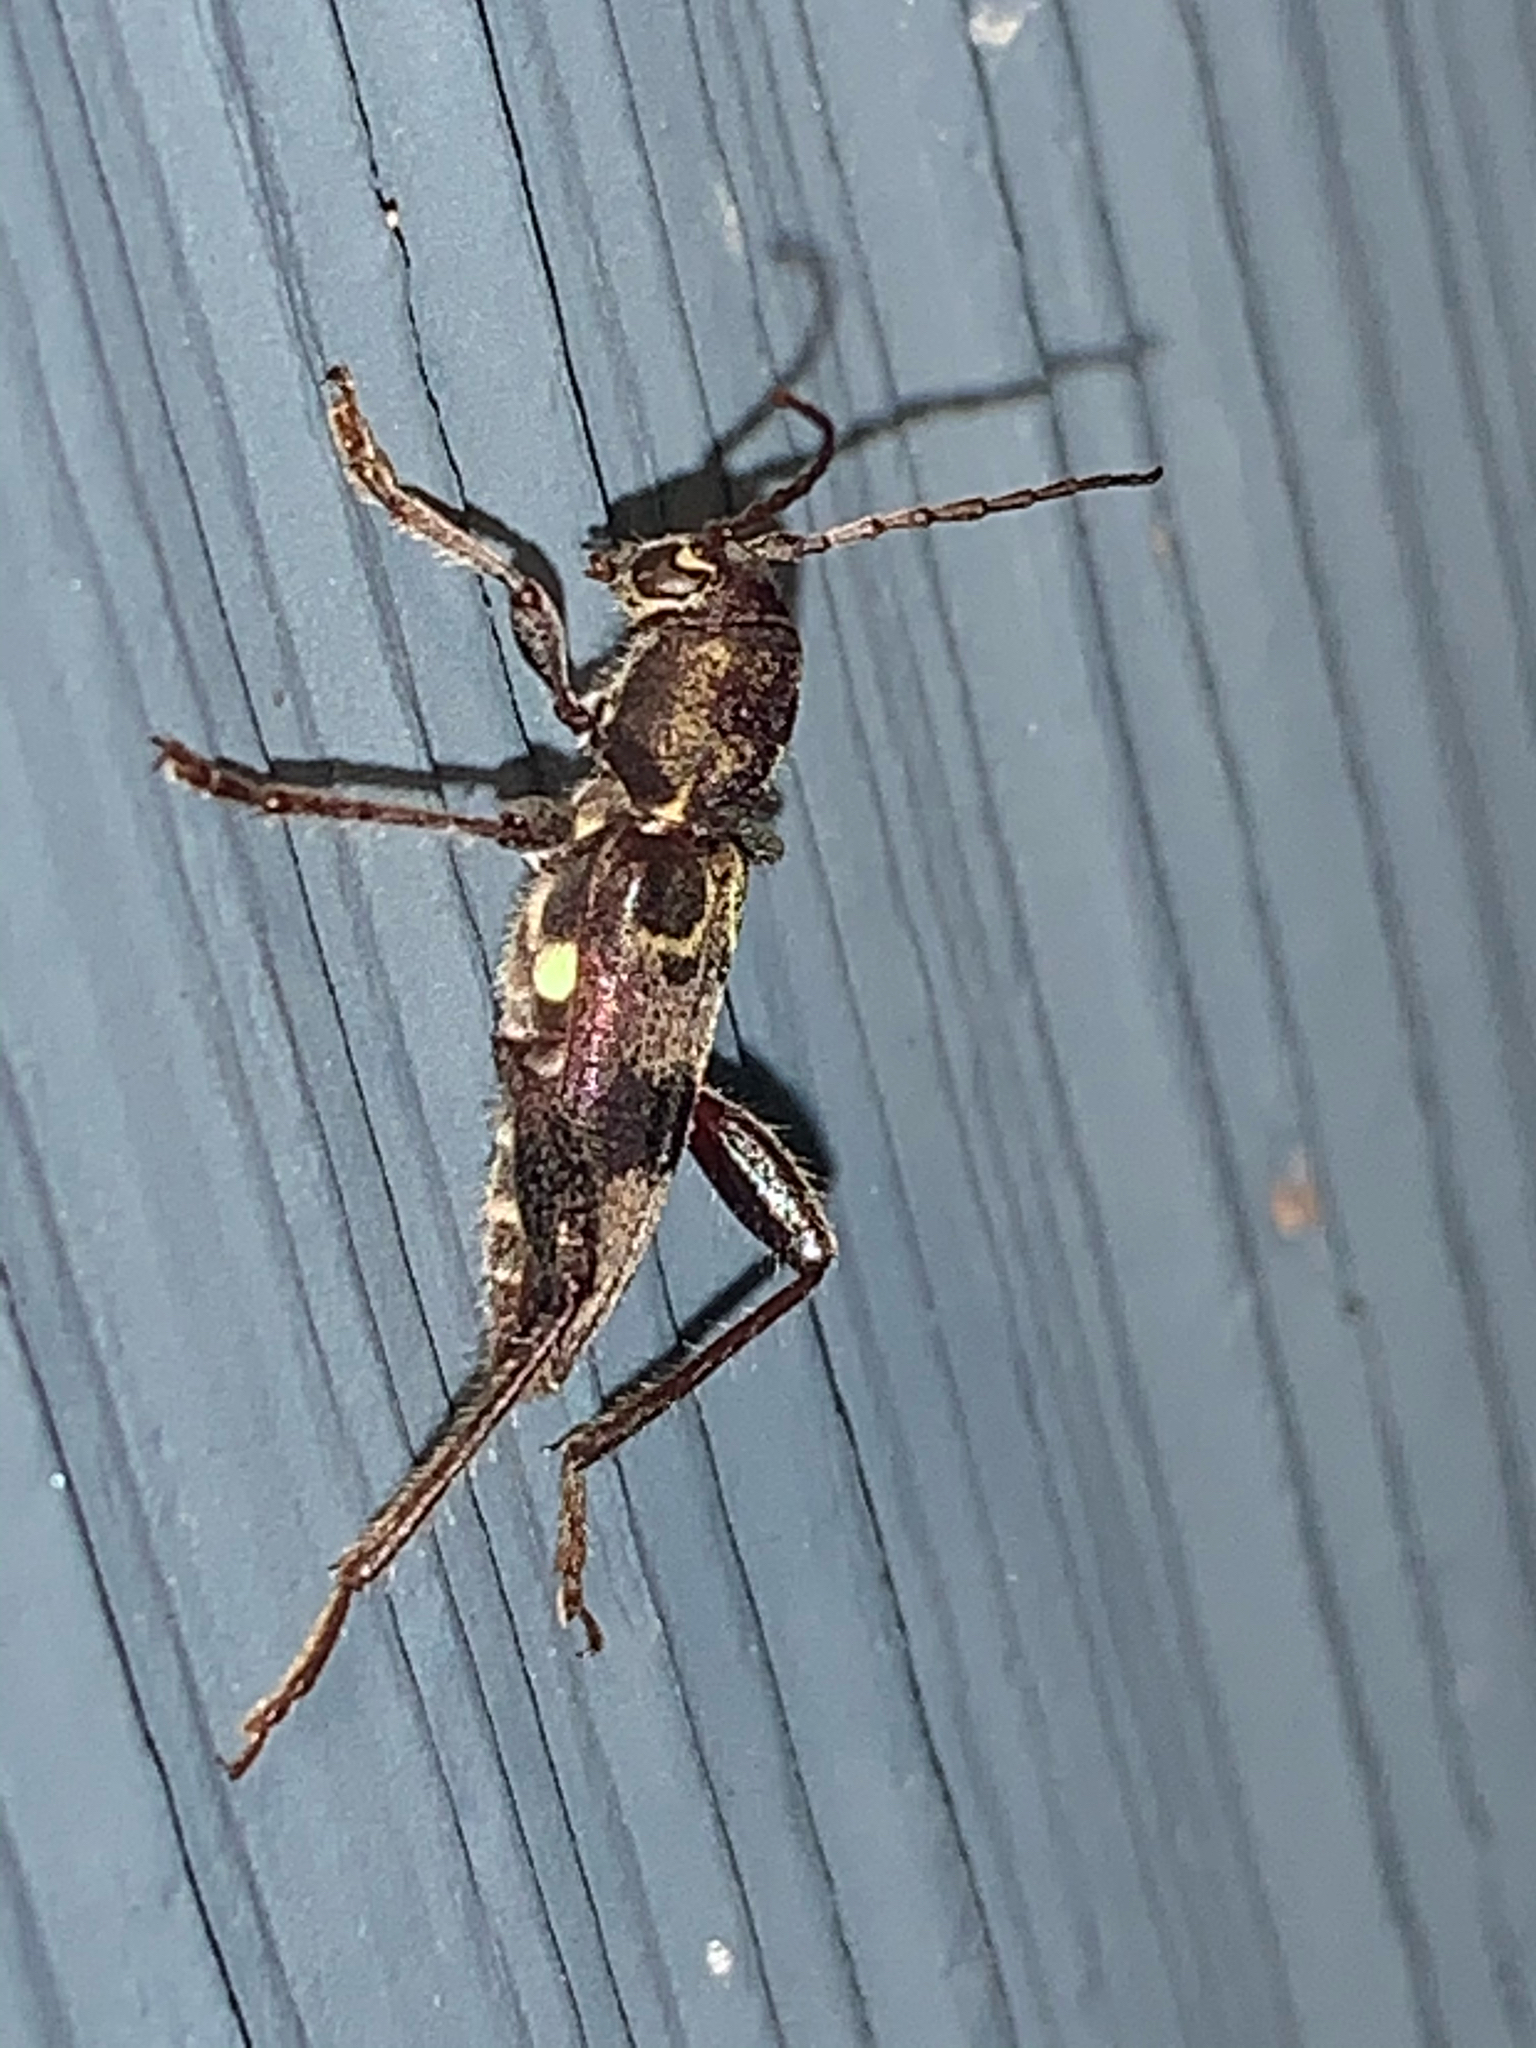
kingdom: Animalia
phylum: Arthropoda
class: Insecta
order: Coleoptera
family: Cerambycidae
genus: Xylotrechus
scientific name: Xylotrechus colonus
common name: Long-horned beetle
